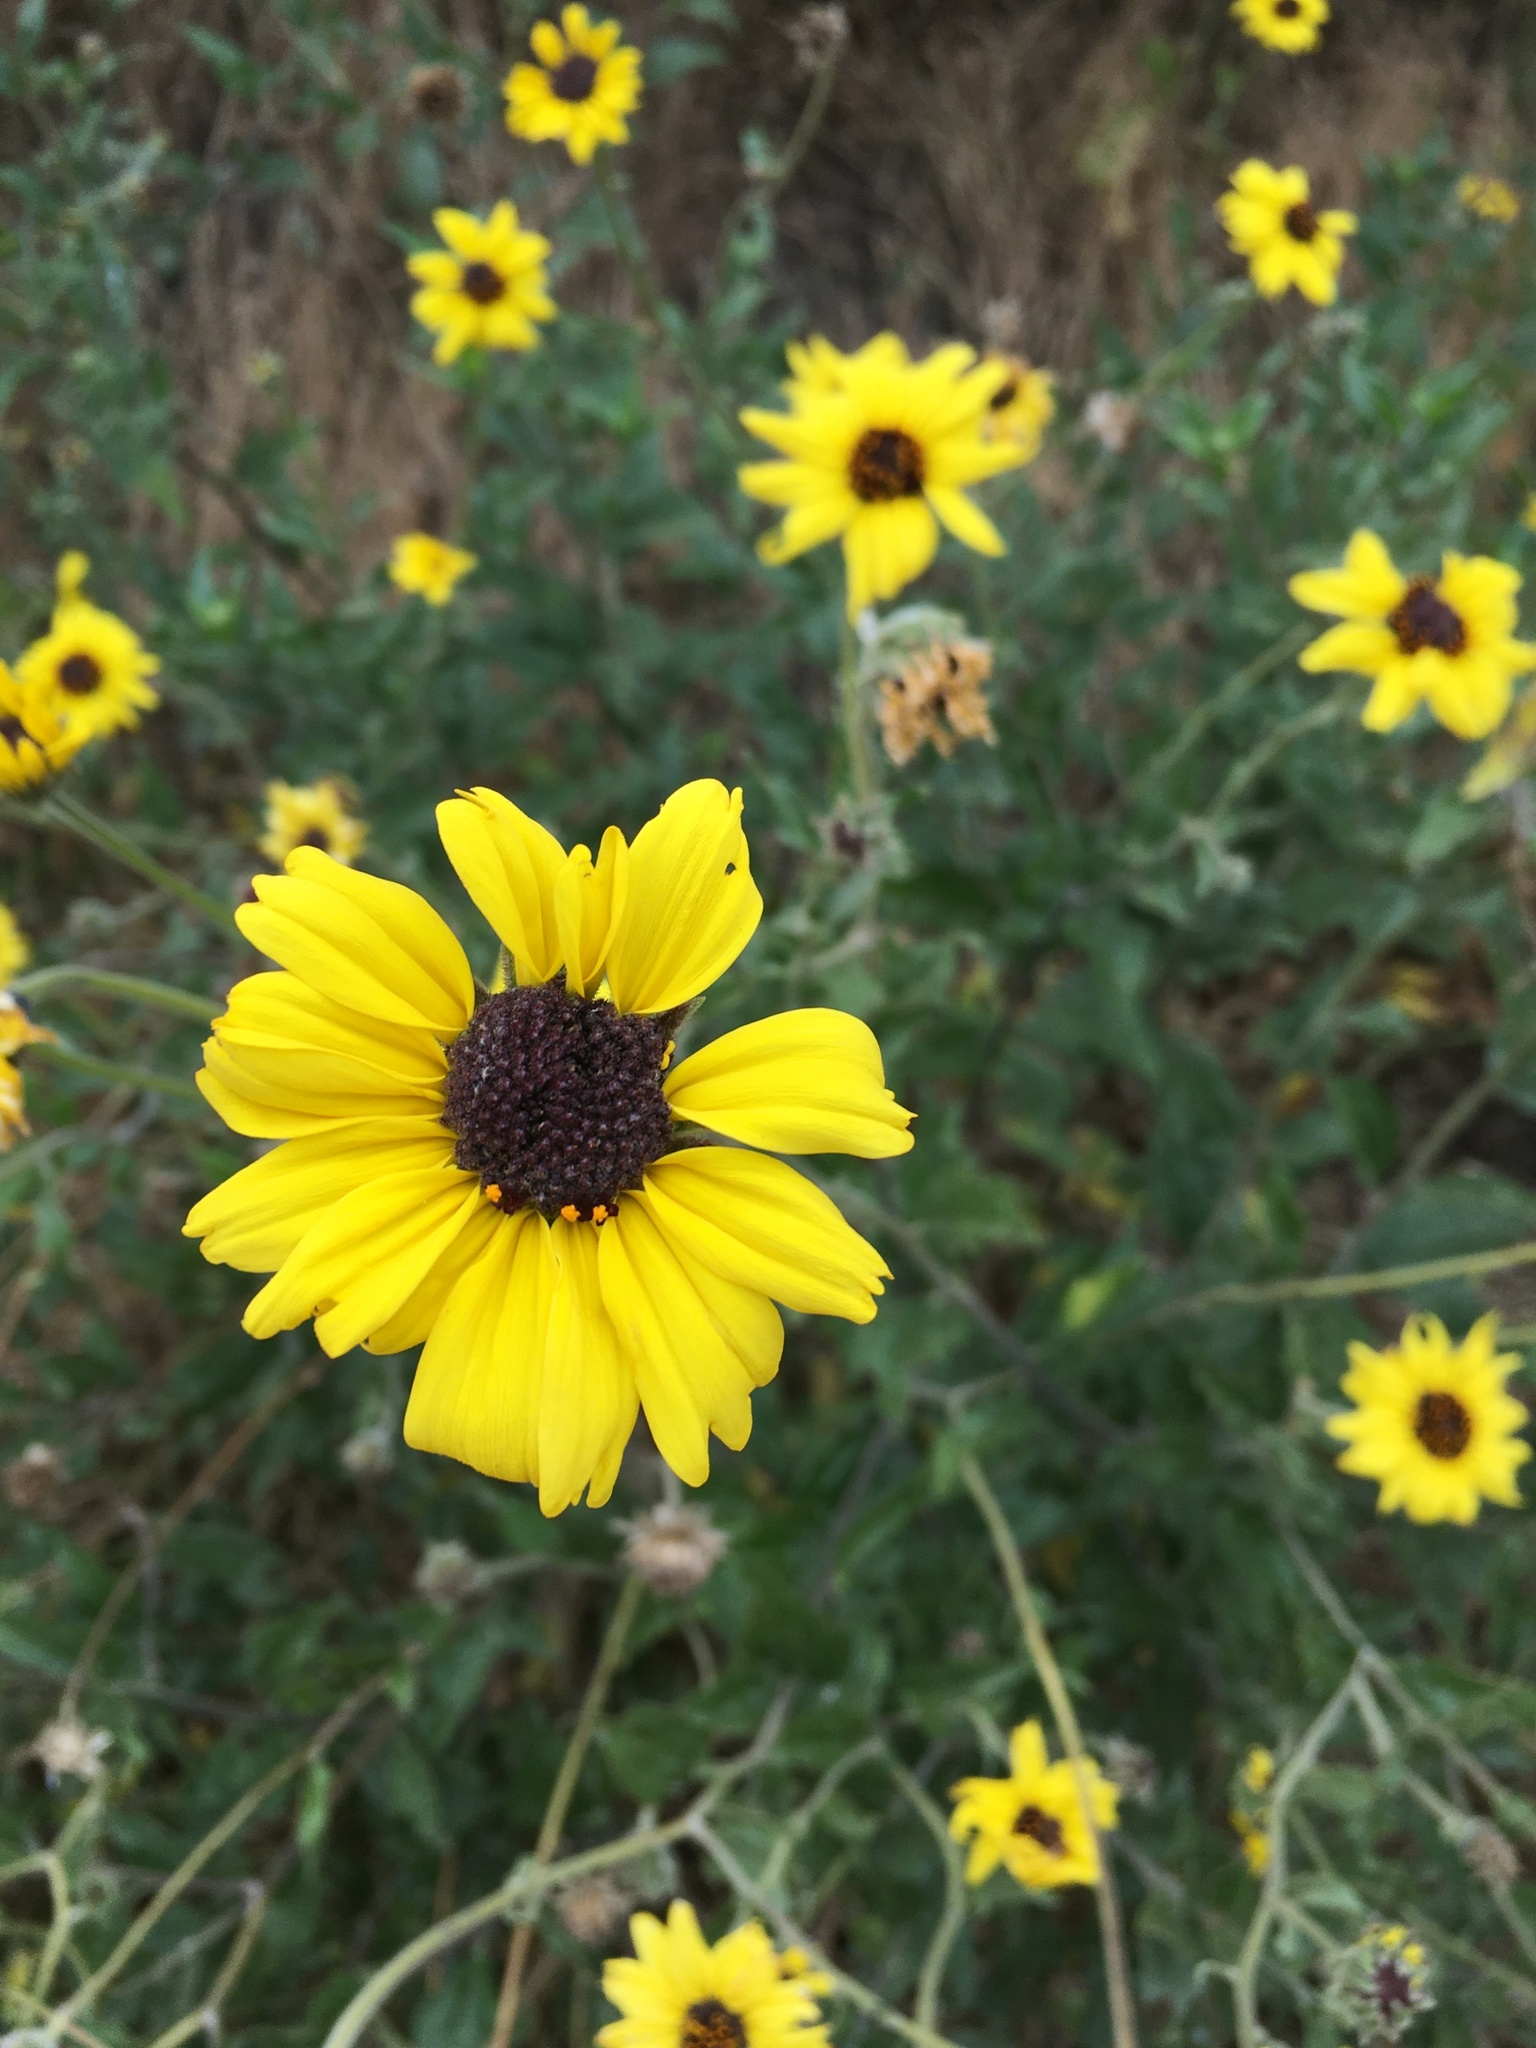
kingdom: Plantae
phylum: Tracheophyta
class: Magnoliopsida
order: Asterales
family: Asteraceae
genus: Encelia
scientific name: Encelia californica
